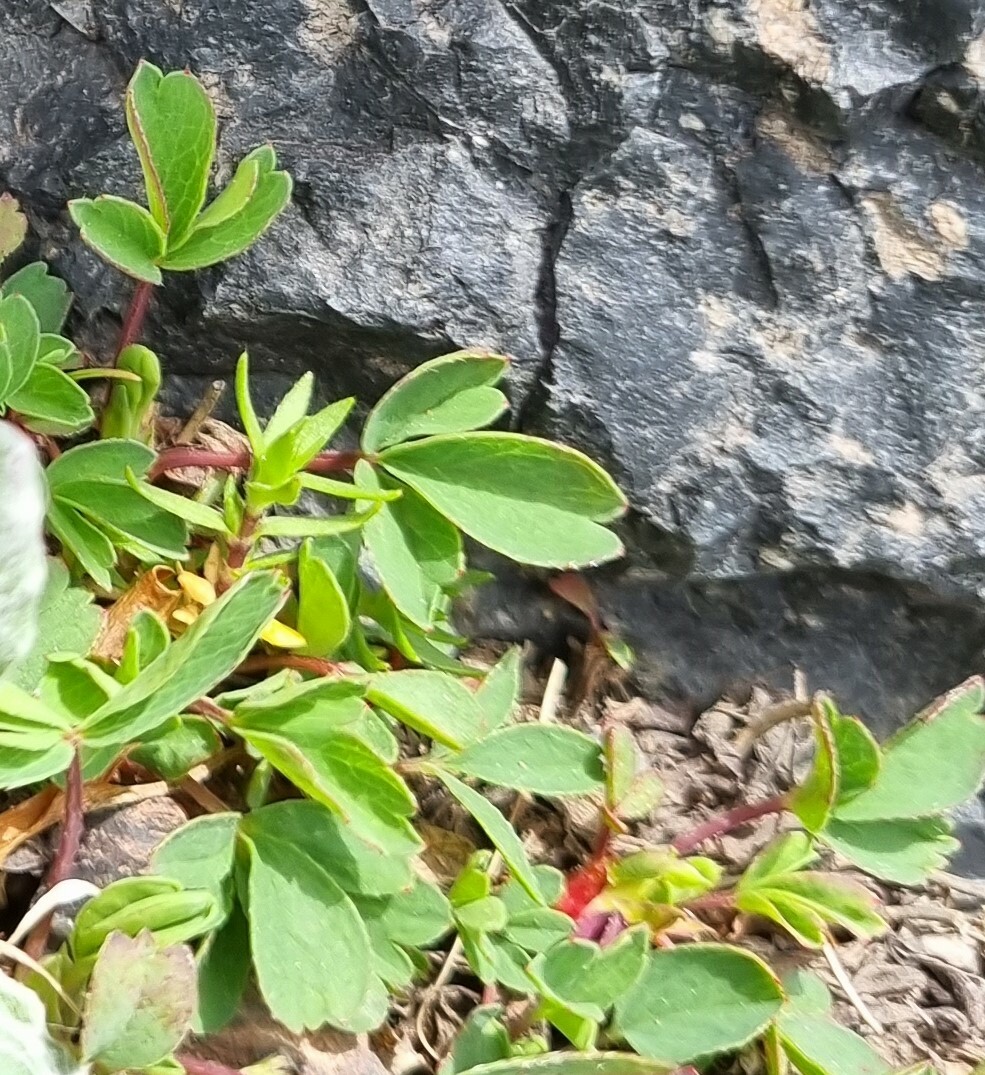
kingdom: Plantae
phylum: Tracheophyta
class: Magnoliopsida
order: Rosales
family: Rosaceae
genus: Sibbaldia
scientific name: Sibbaldia parviflora
